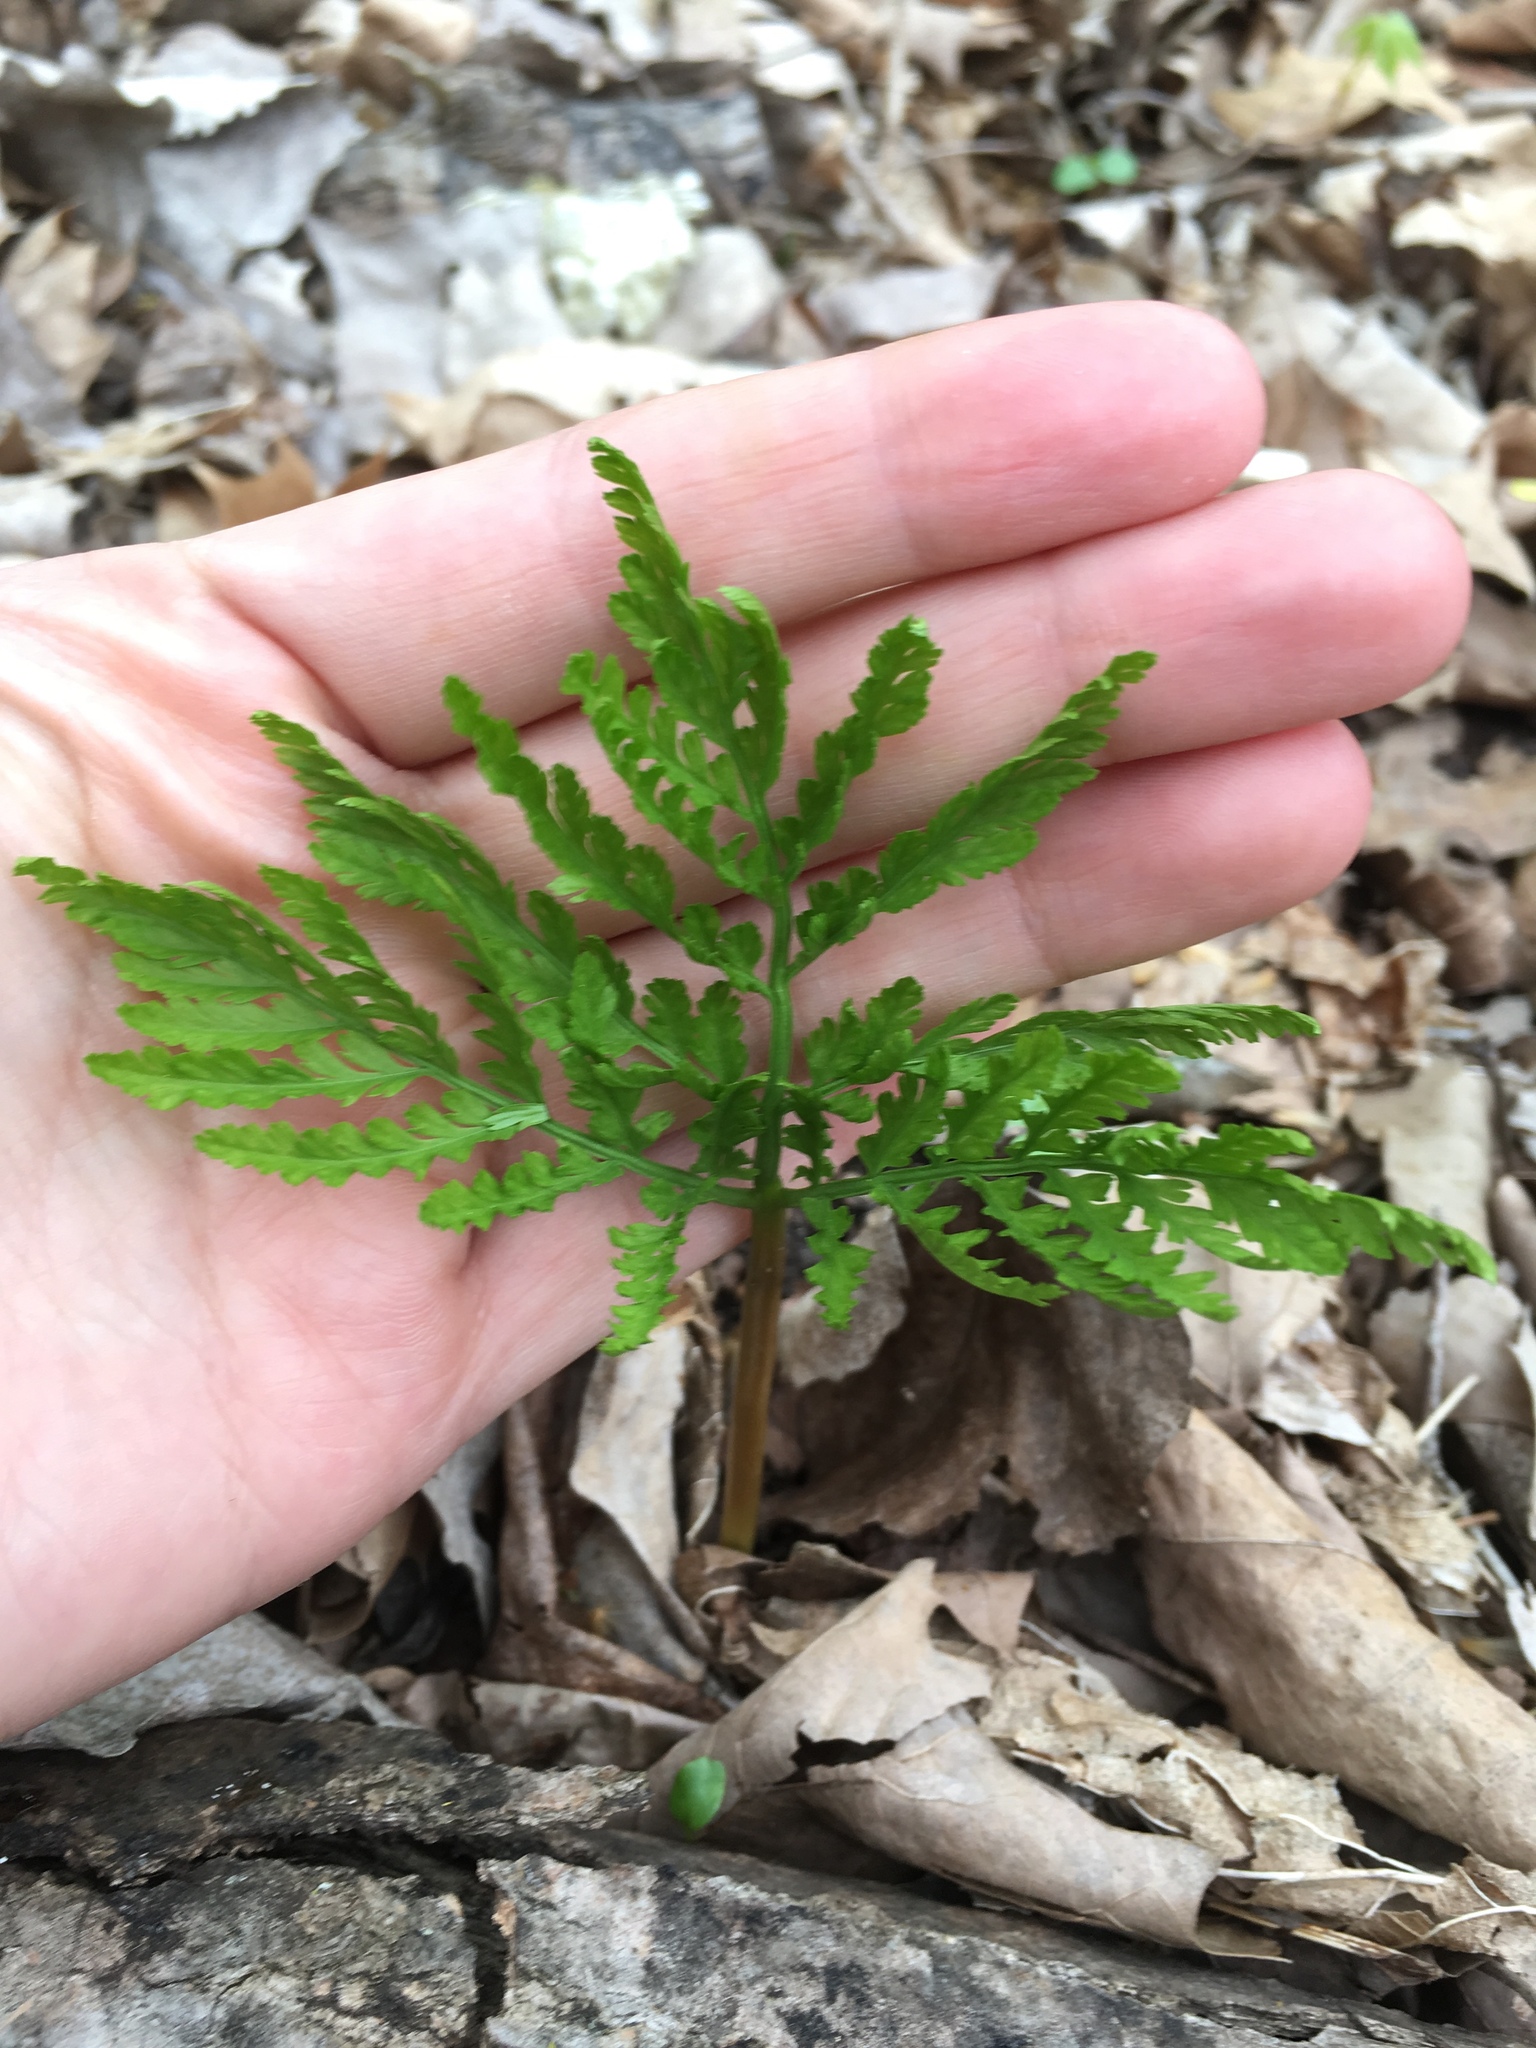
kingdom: Plantae
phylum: Tracheophyta
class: Polypodiopsida
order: Ophioglossales
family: Ophioglossaceae
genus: Botrypus
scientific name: Botrypus virginianus
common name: Common grapefern
